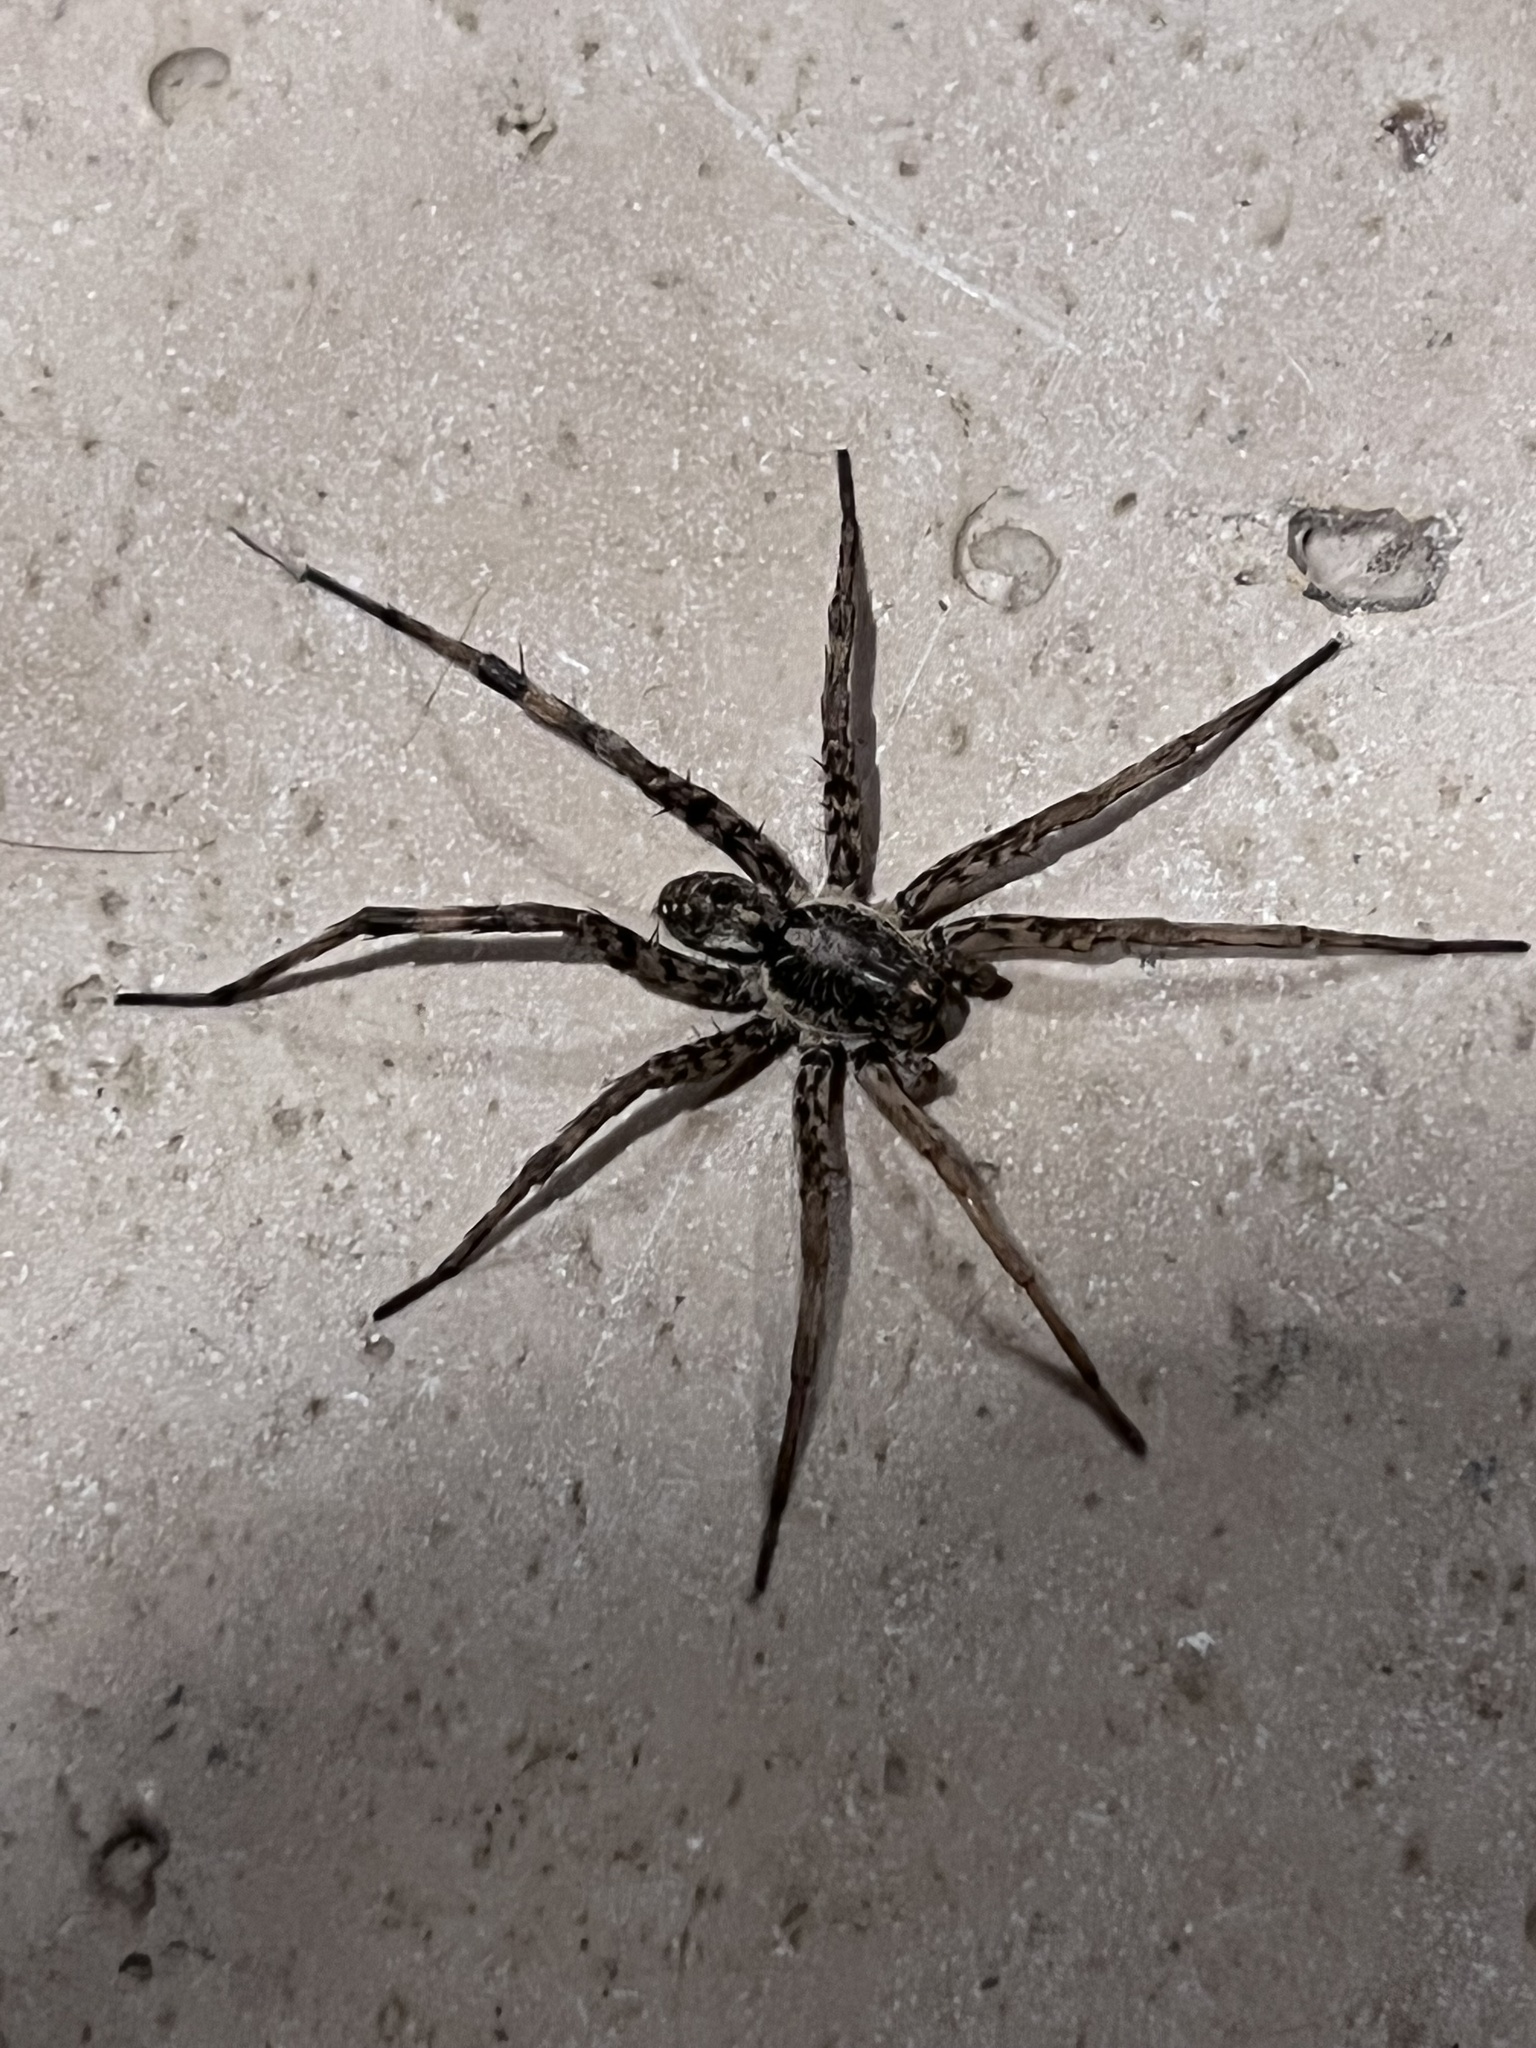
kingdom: Animalia
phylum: Arthropoda
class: Arachnida
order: Araneae
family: Lycosidae
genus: Hogna
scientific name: Hogna antelucana
